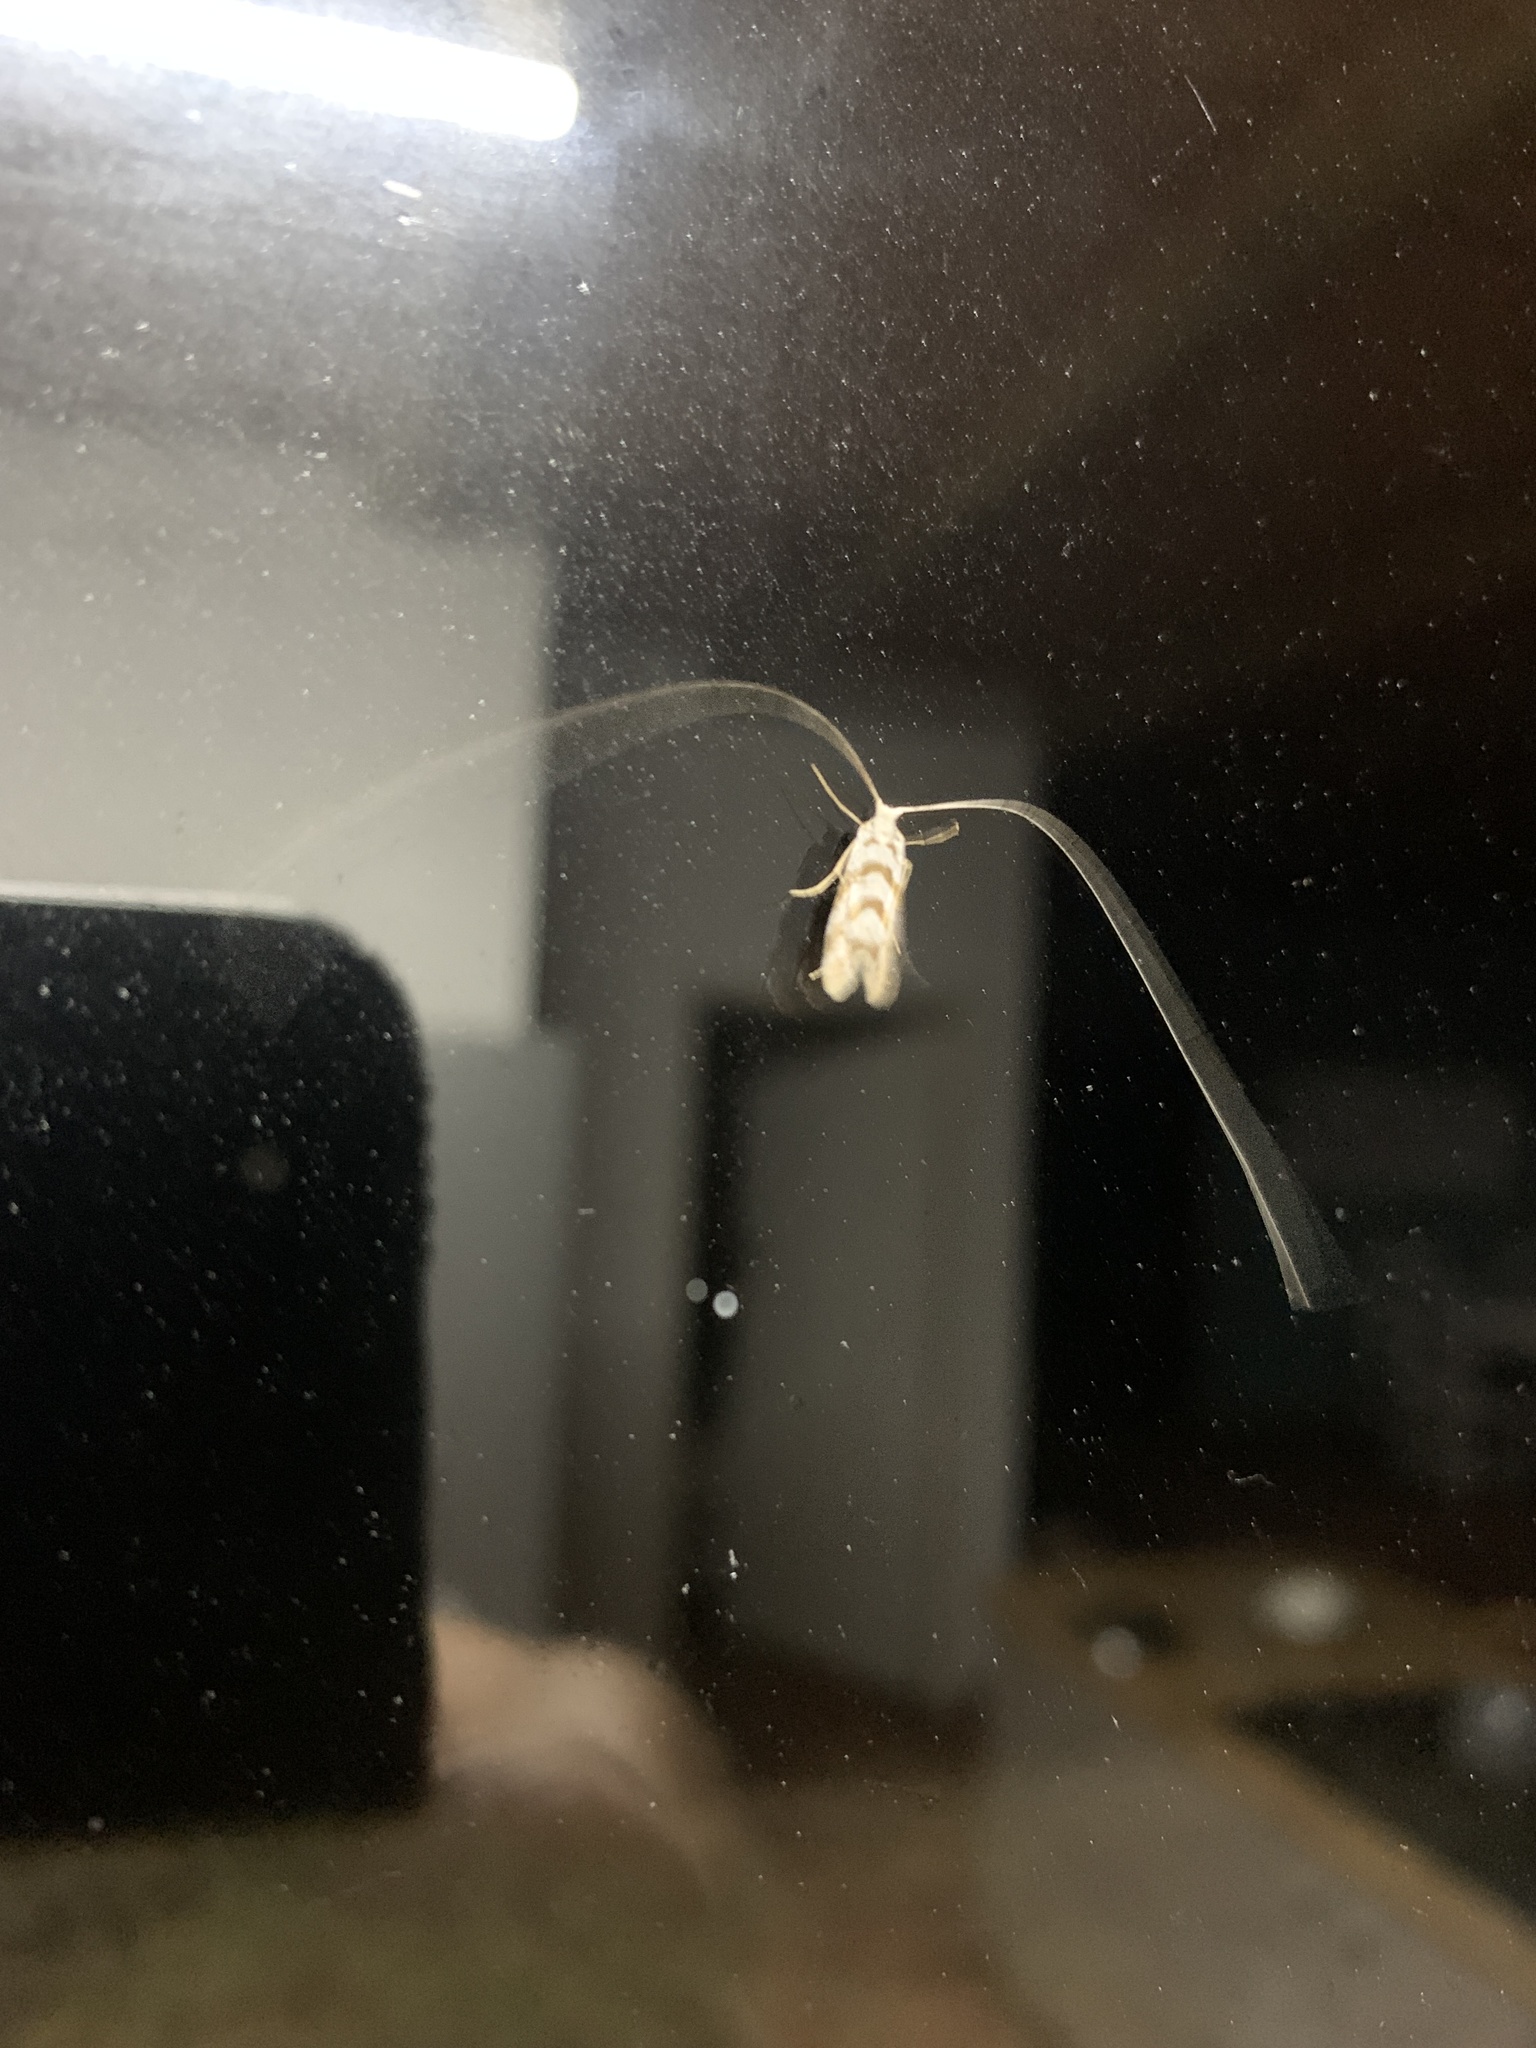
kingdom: Animalia
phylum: Arthropoda
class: Insecta
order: Lepidoptera
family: Adelidae
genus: Ceromitia
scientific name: Ceromitia wahlbergi
